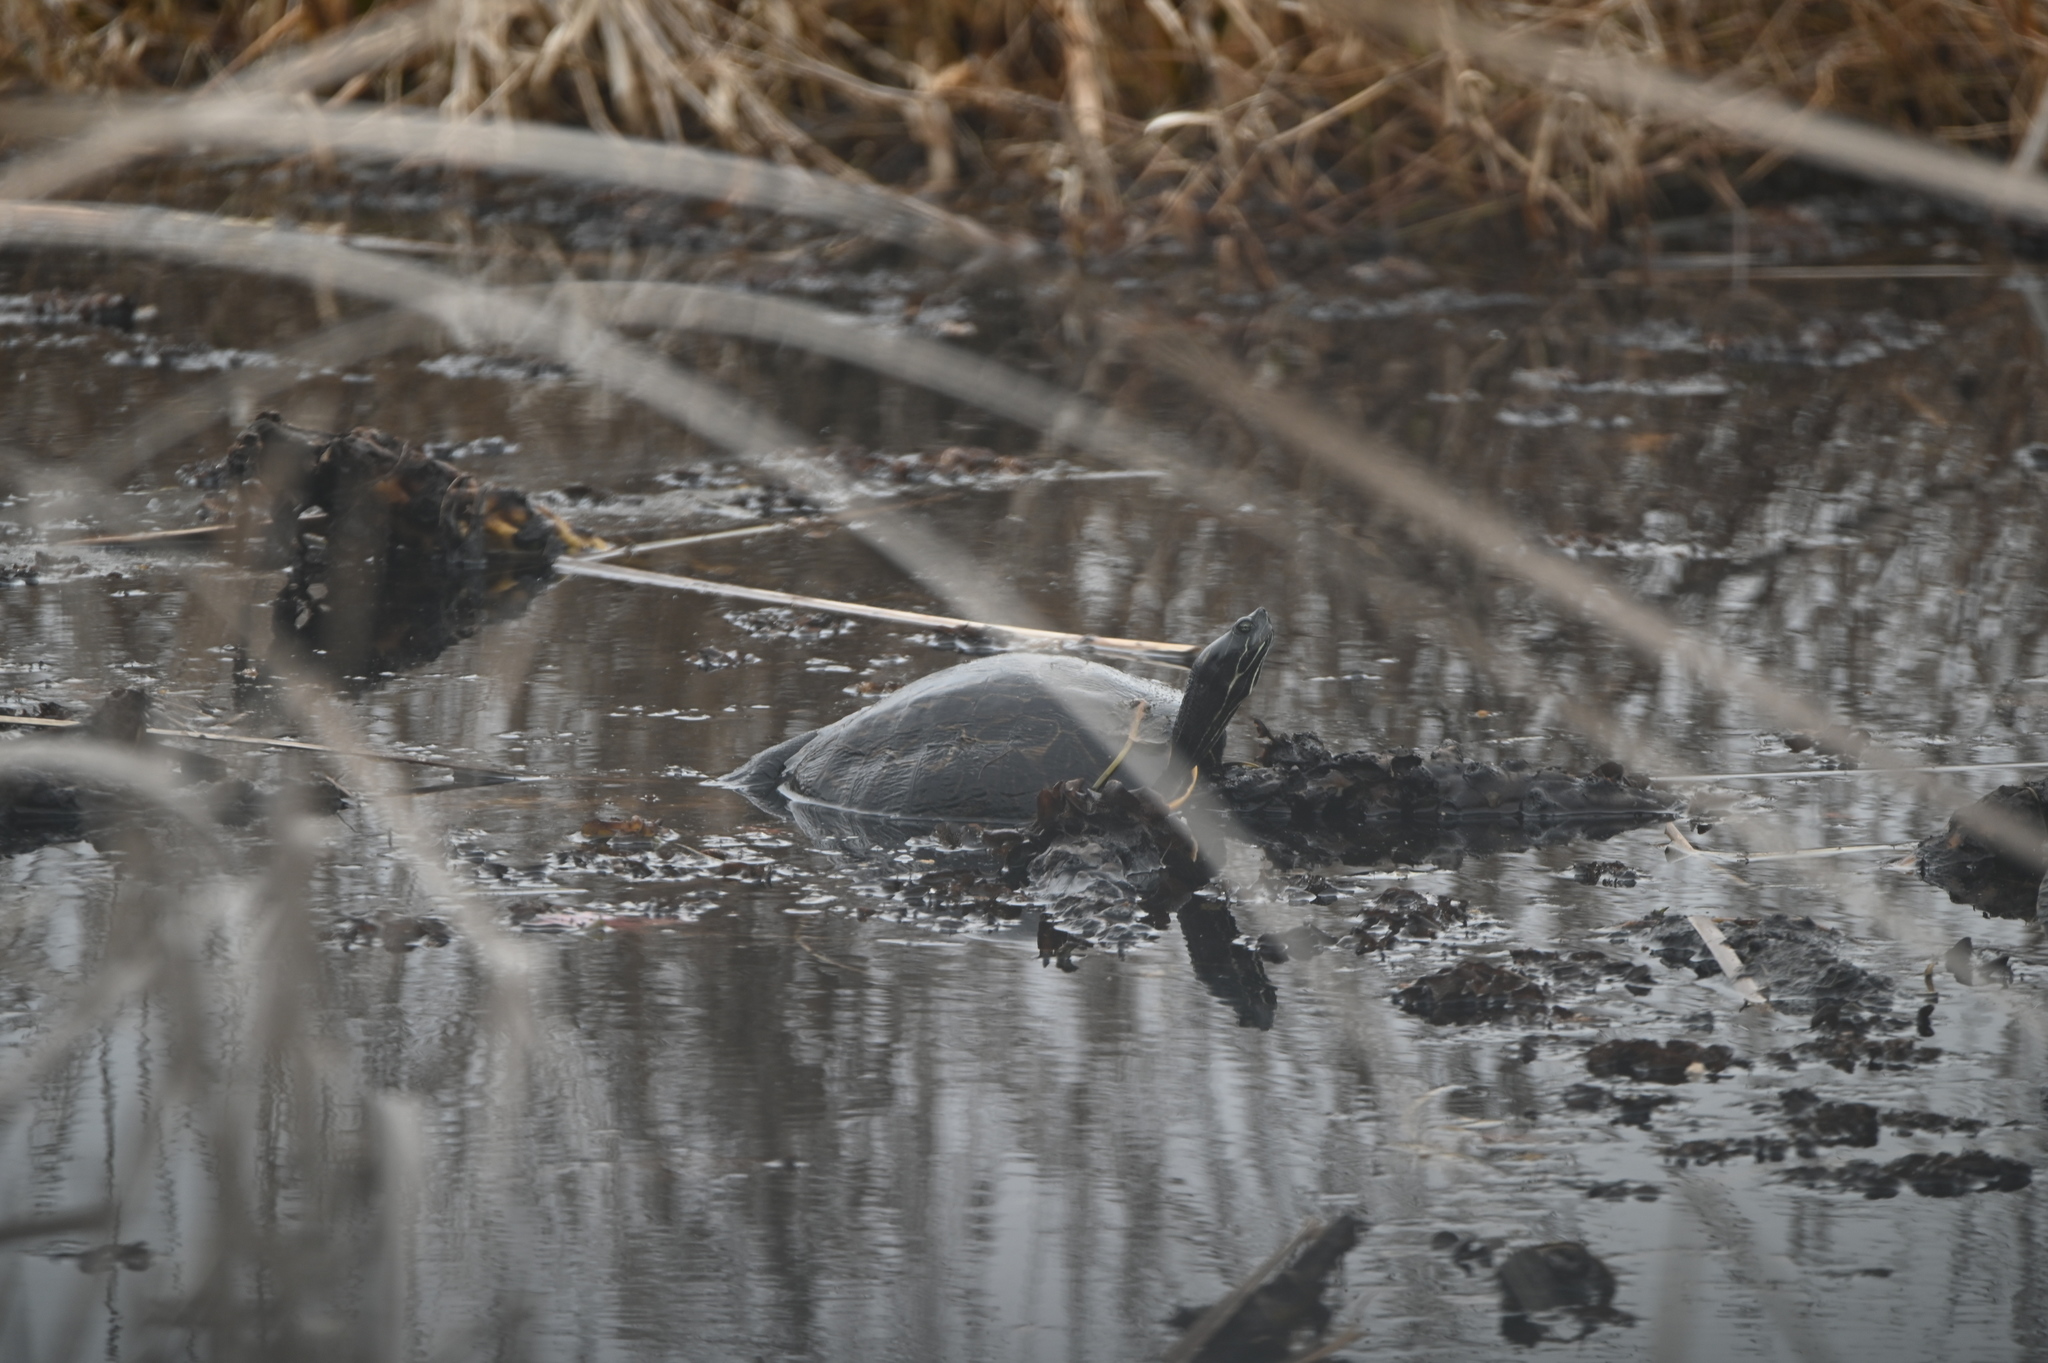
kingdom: Animalia
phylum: Chordata
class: Testudines
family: Emydidae
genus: Pseudemys
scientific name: Pseudemys concinna
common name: Eastern river cooter
